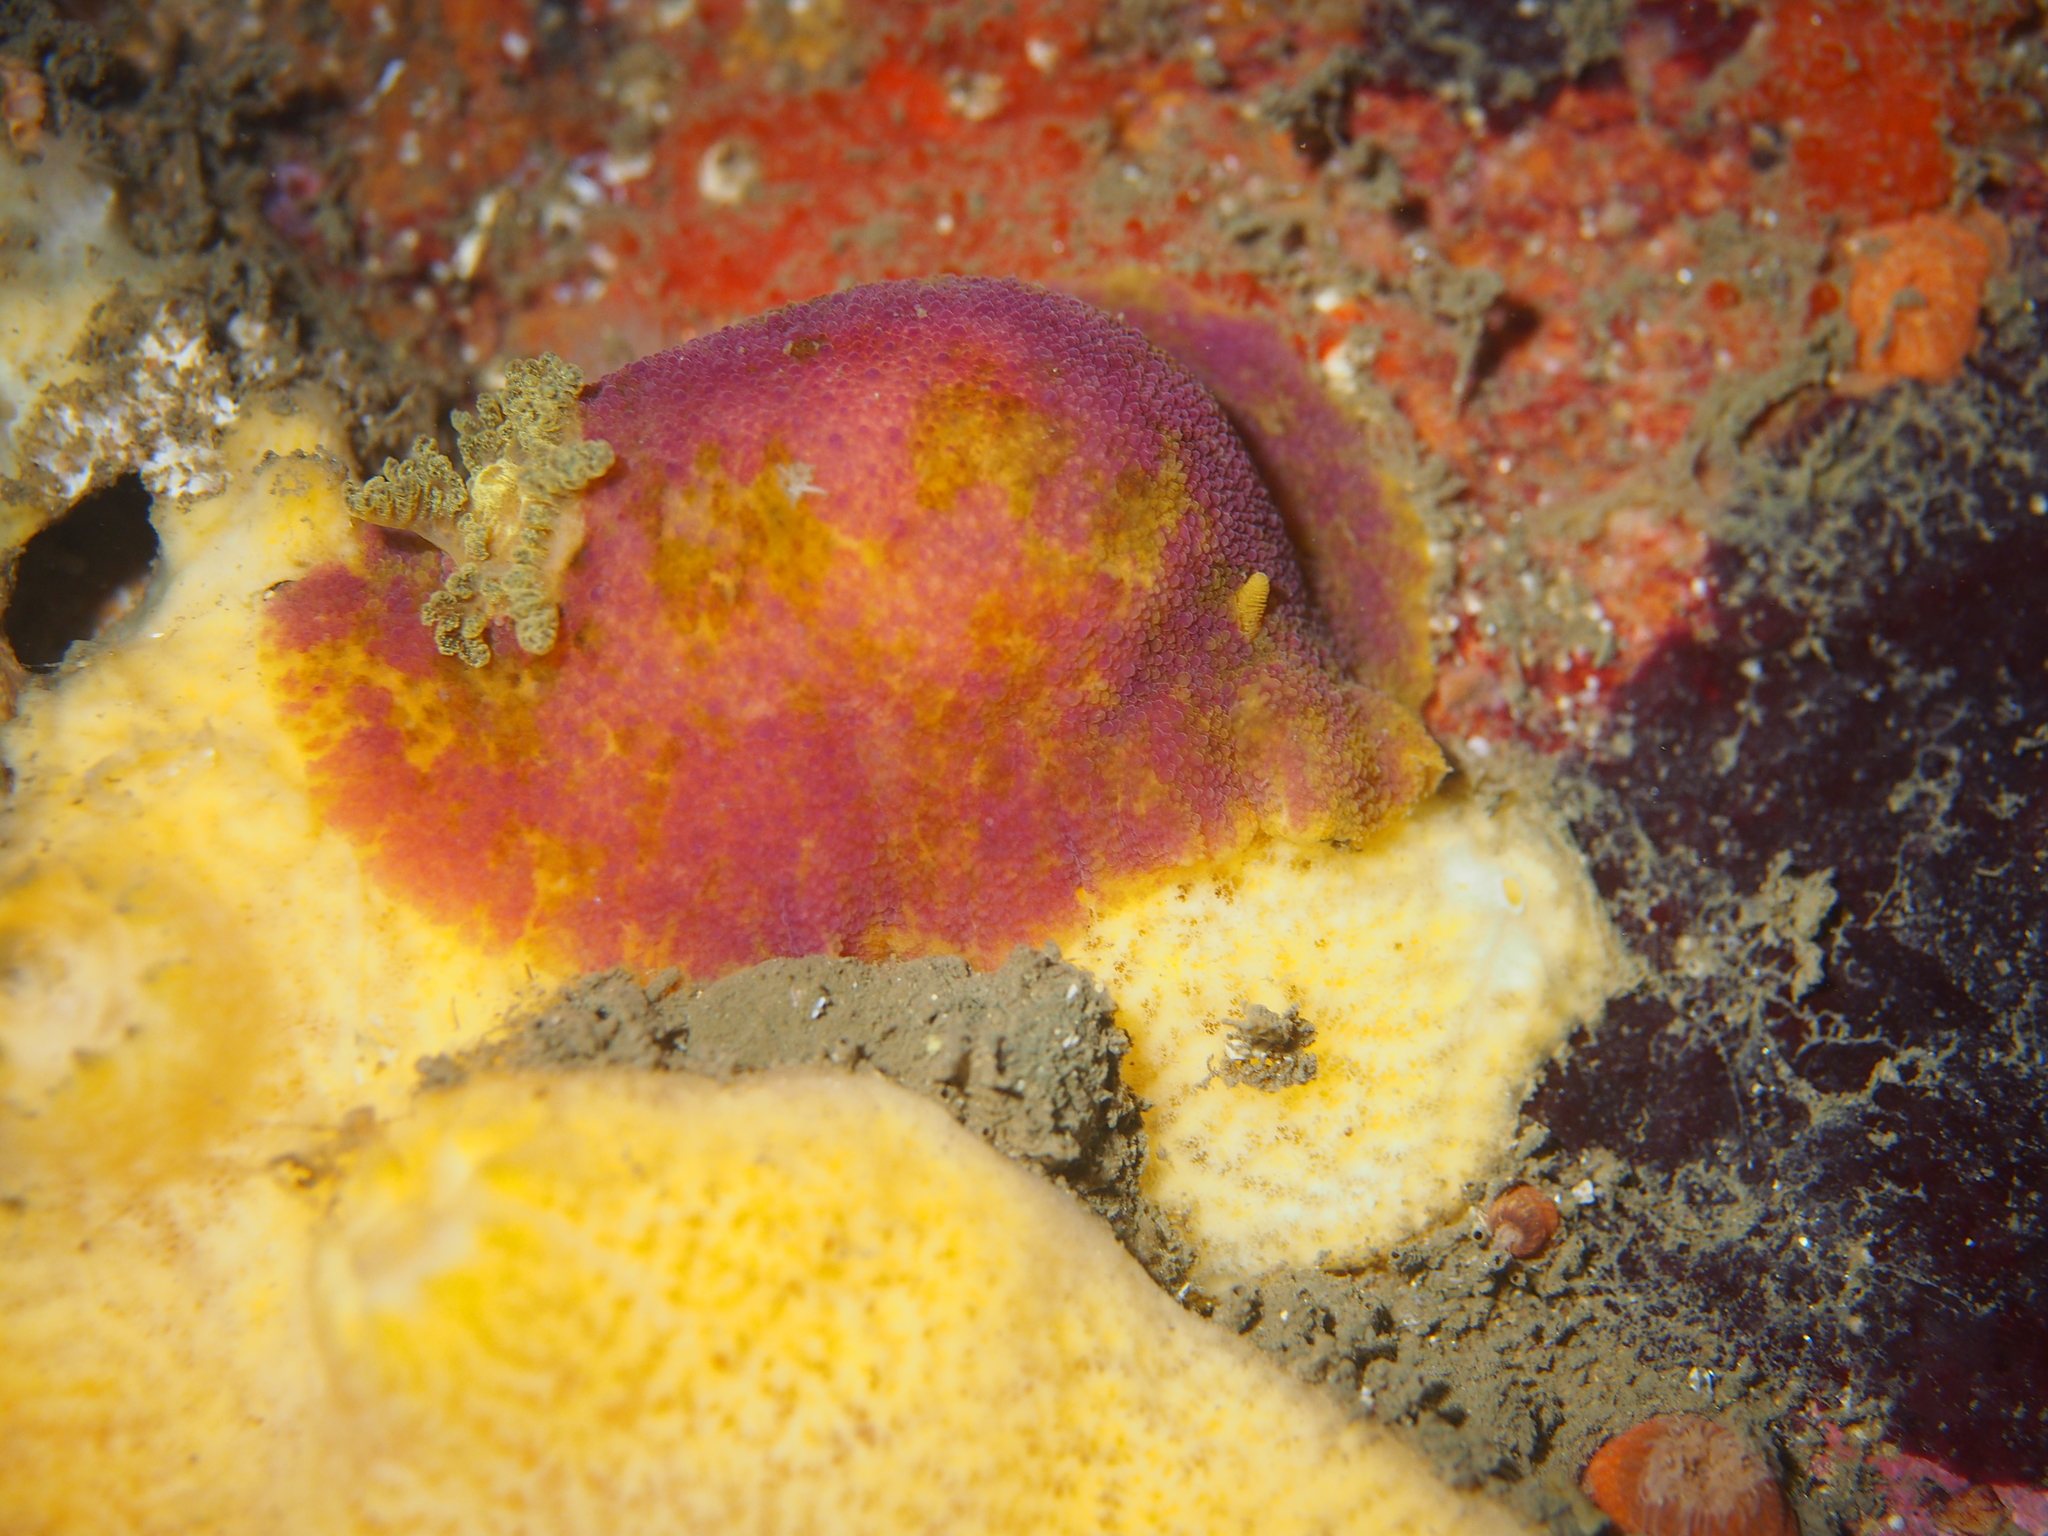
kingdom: Animalia
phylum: Mollusca
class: Gastropoda
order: Nudibranchia
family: Dorididae
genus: Doris
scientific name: Doris pseudoargus
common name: Sea lemon
